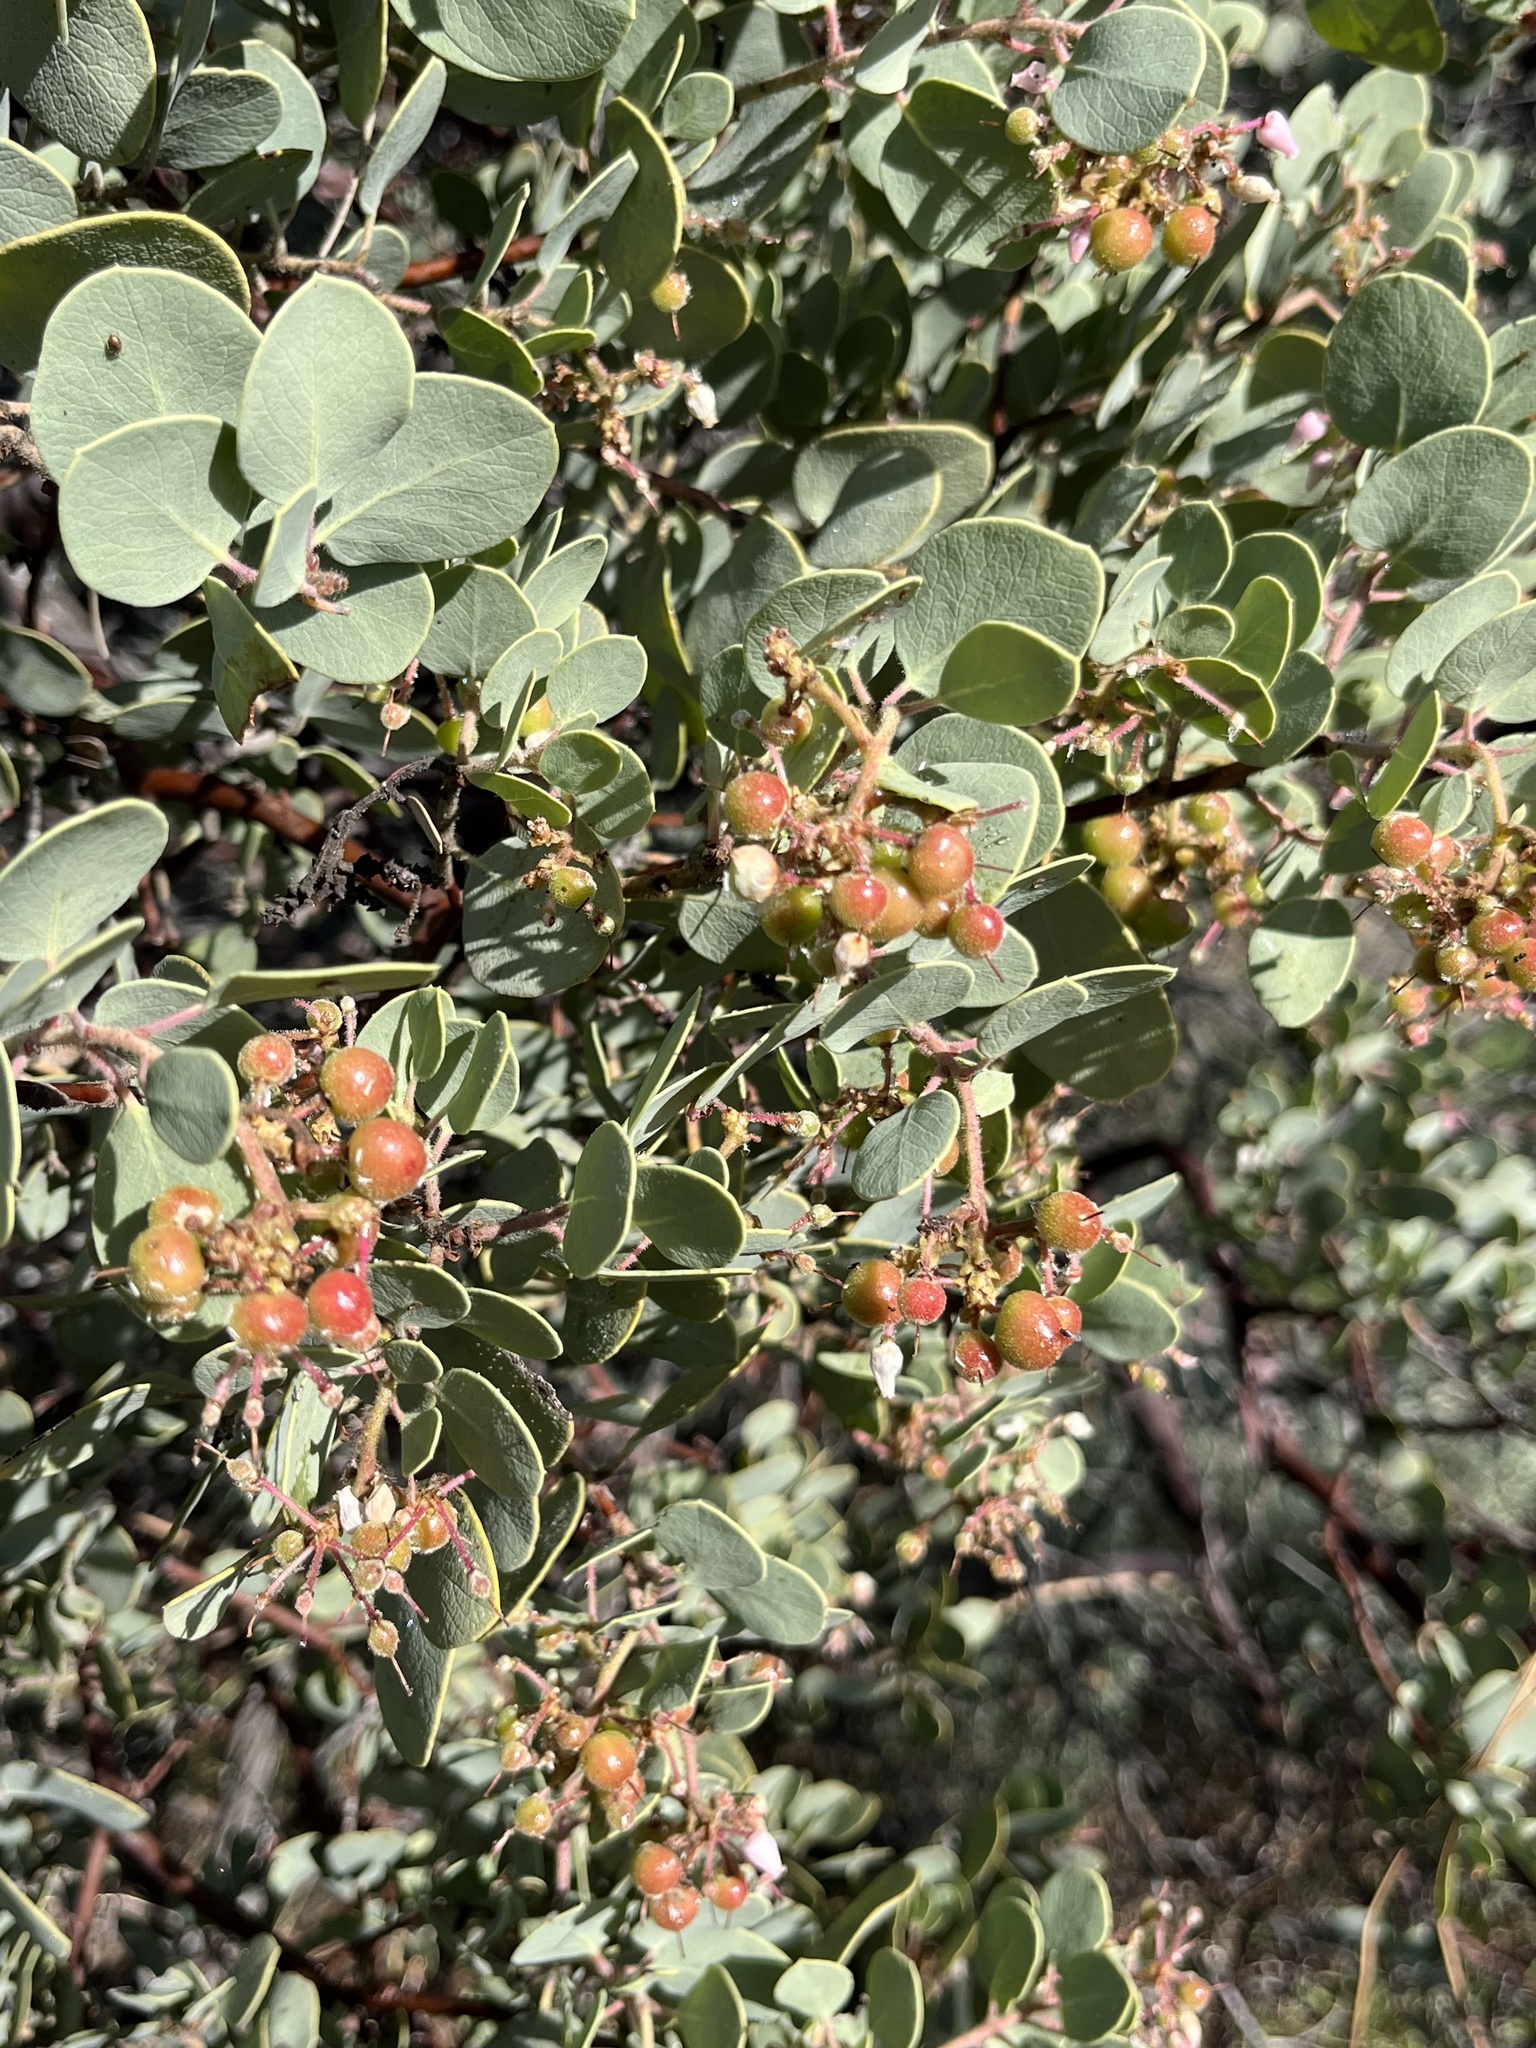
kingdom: Plantae
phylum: Tracheophyta
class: Magnoliopsida
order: Ericales
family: Ericaceae
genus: Arctostaphylos
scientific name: Arctostaphylos viscida
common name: White-leaf manzanita
